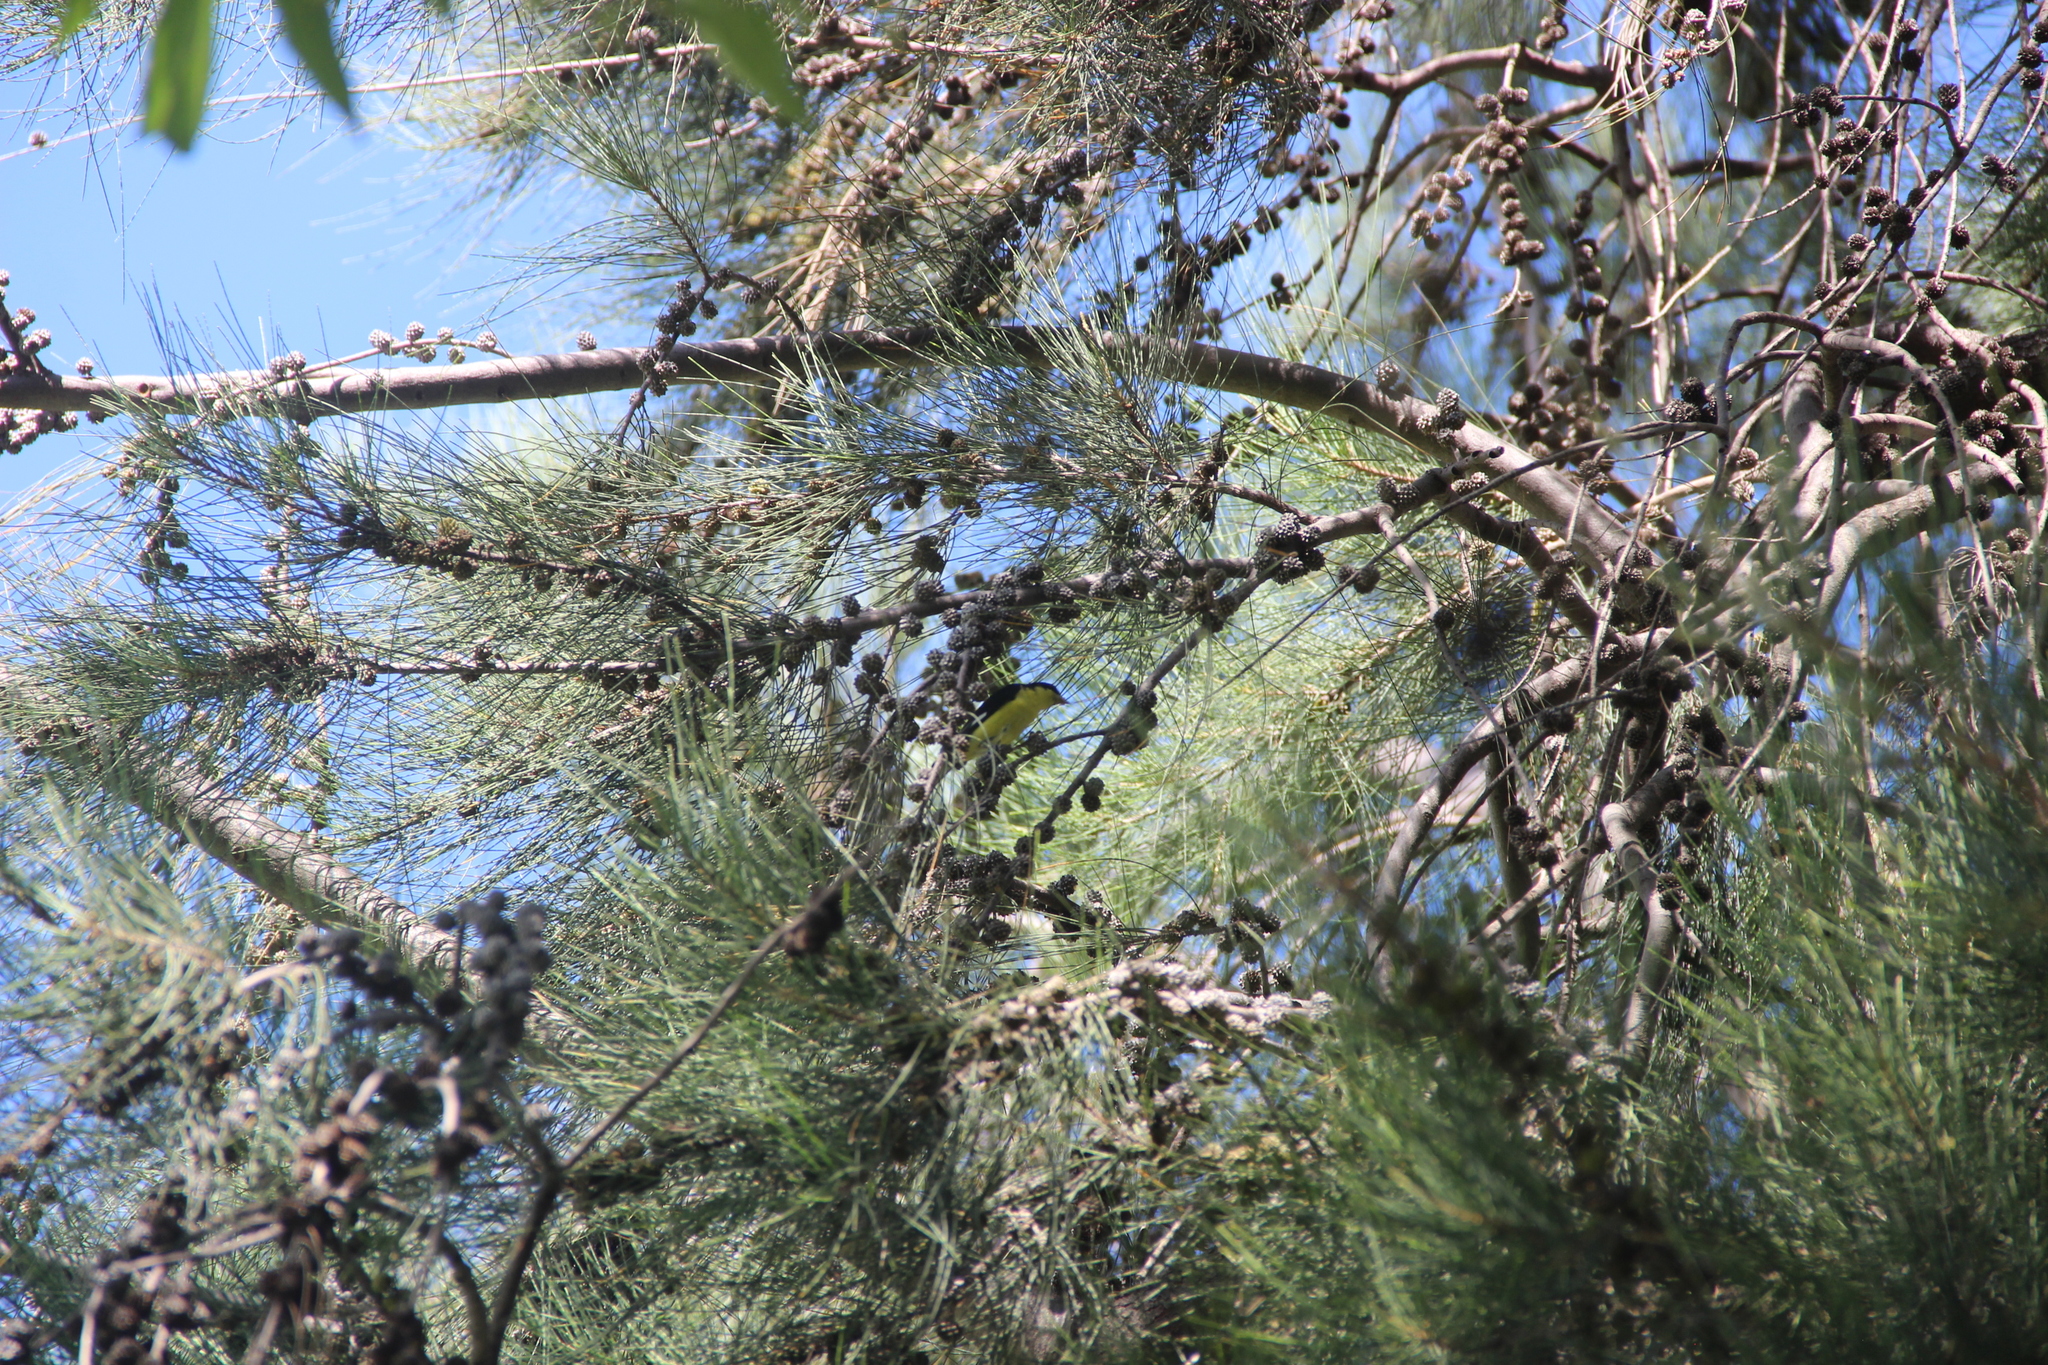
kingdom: Animalia
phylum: Chordata
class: Aves
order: Passeriformes
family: Fringillidae
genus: Spinus
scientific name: Spinus psaltria
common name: Lesser goldfinch
